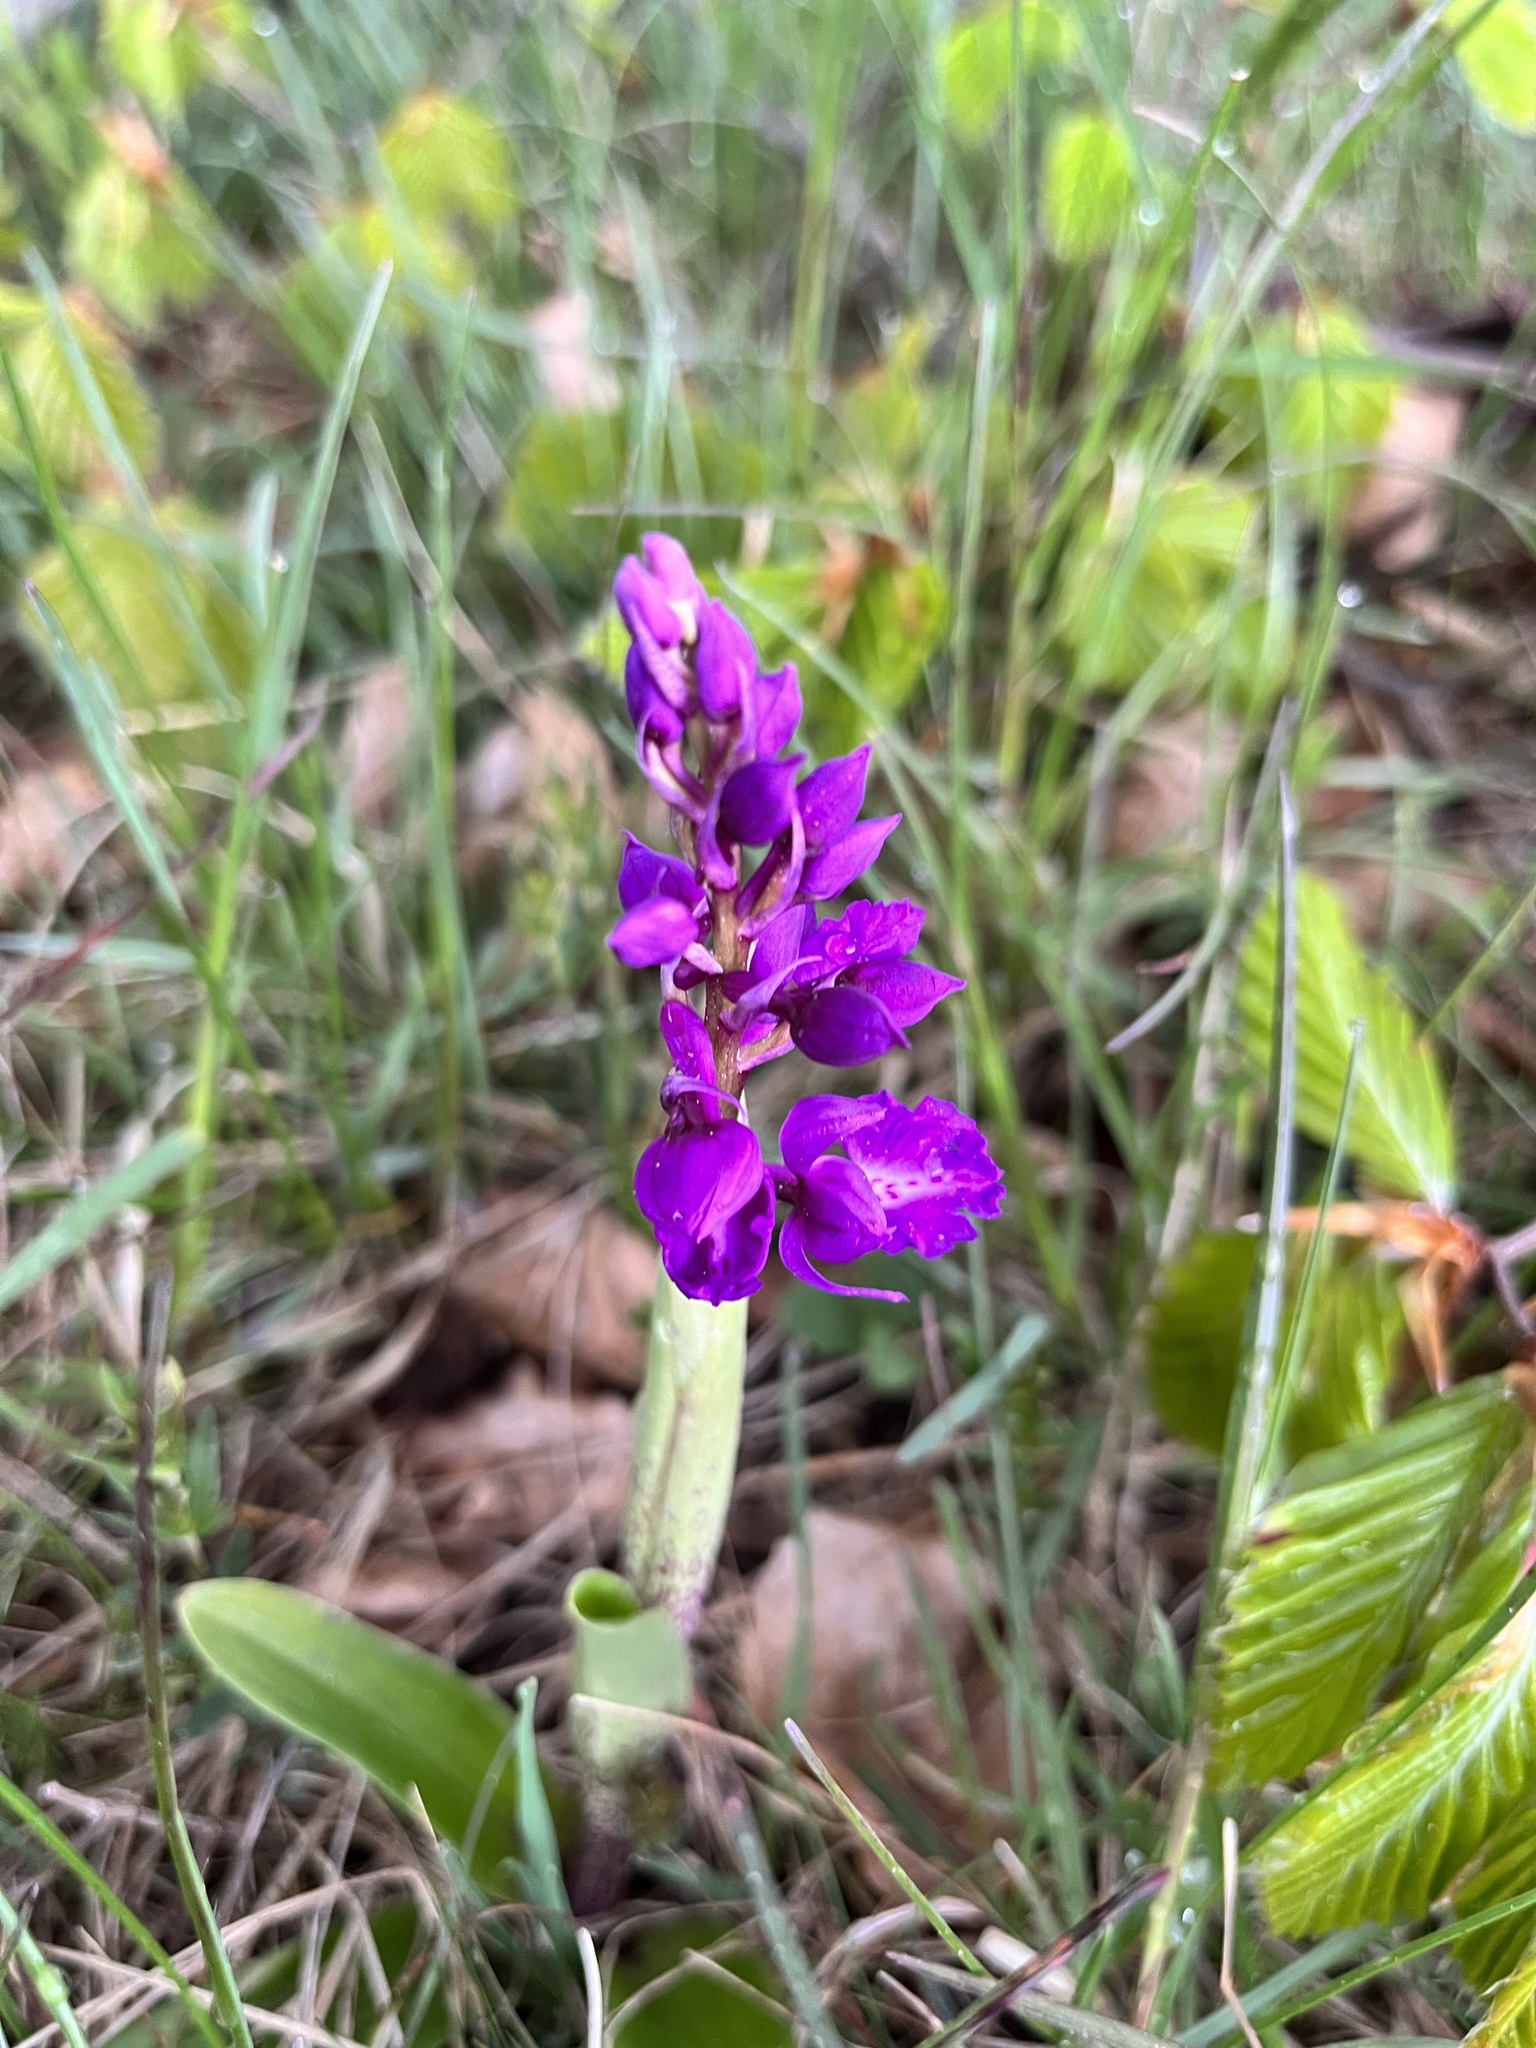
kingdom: Plantae
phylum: Tracheophyta
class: Liliopsida
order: Asparagales
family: Orchidaceae
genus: Orchis
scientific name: Orchis mascula
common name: Early-purple orchid
